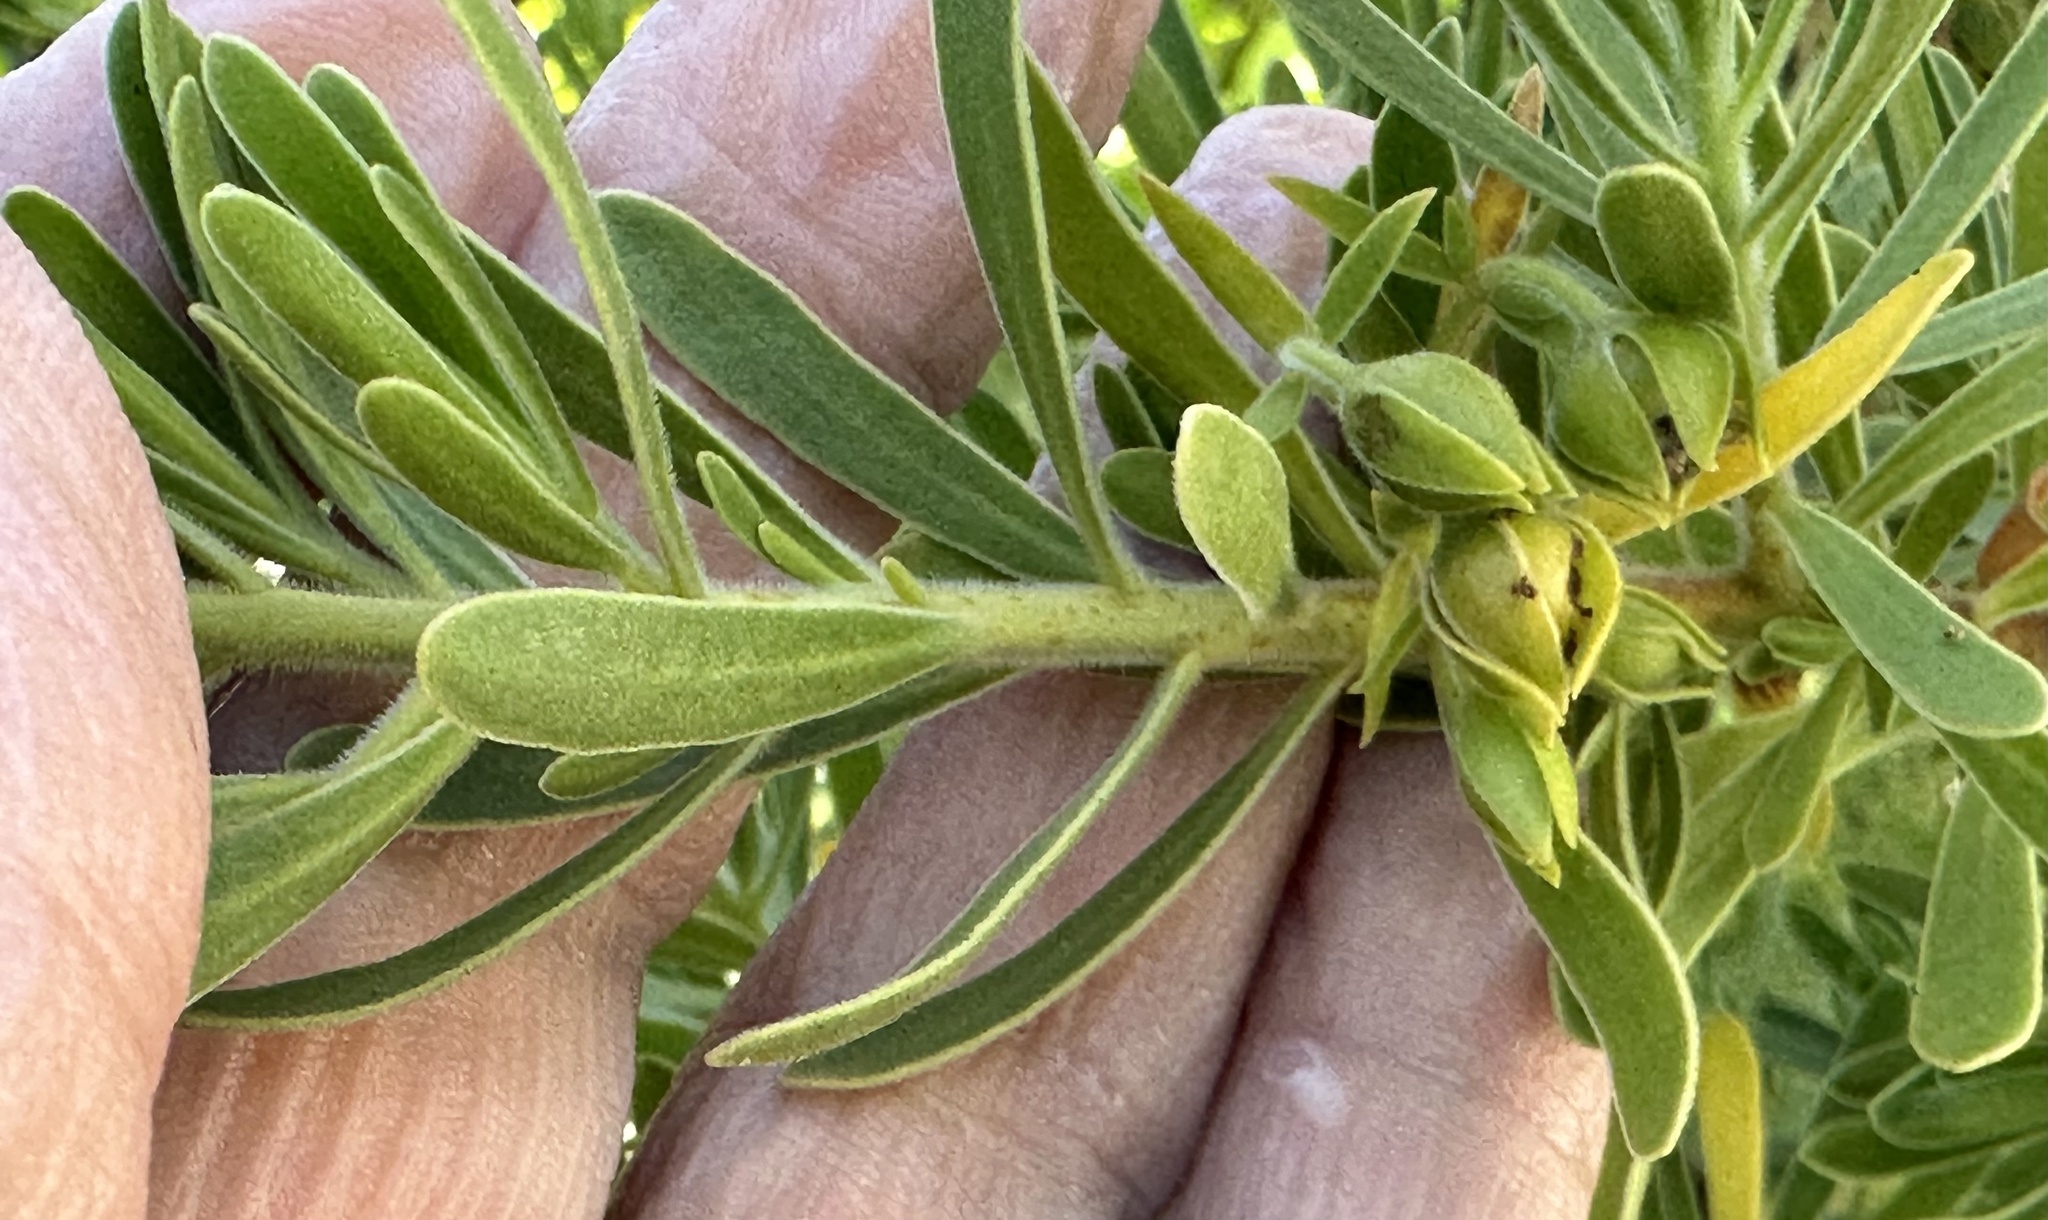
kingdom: Plantae
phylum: Tracheophyta
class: Magnoliopsida
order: Fabales
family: Surianaceae
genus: Suriana
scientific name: Suriana maritima
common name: Bay-cedar
